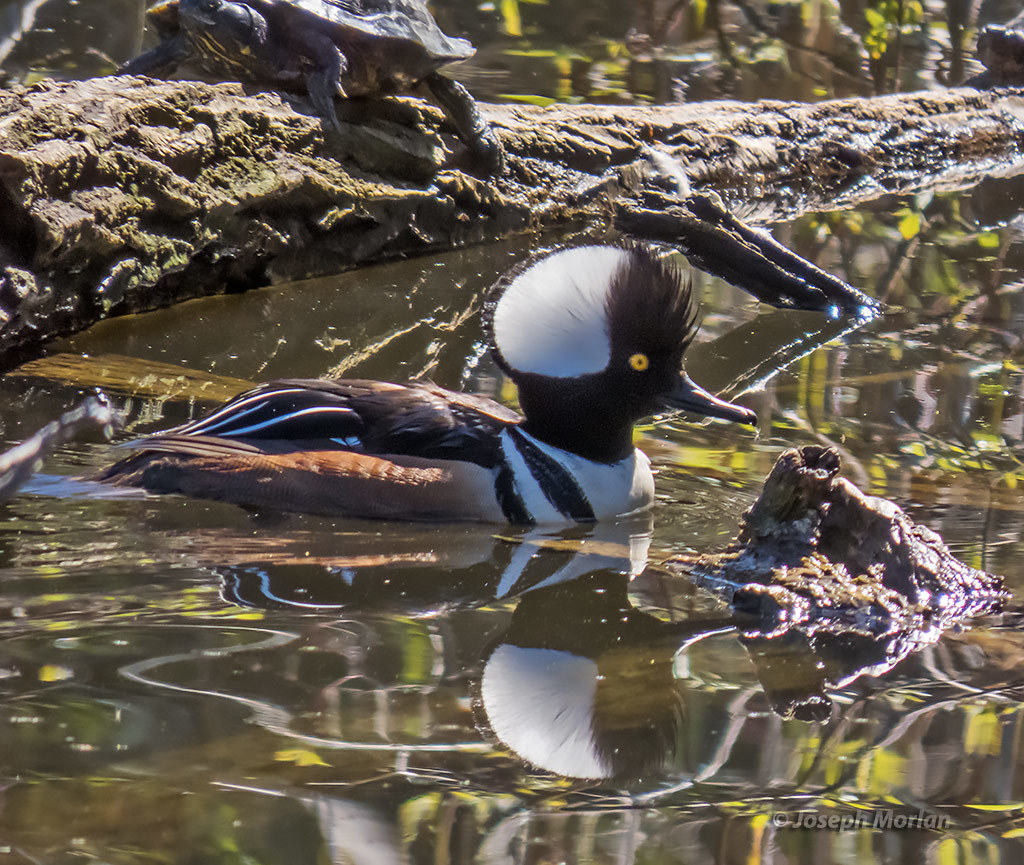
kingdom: Animalia
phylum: Chordata
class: Aves
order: Anseriformes
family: Anatidae
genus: Lophodytes
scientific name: Lophodytes cucullatus
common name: Hooded merganser
